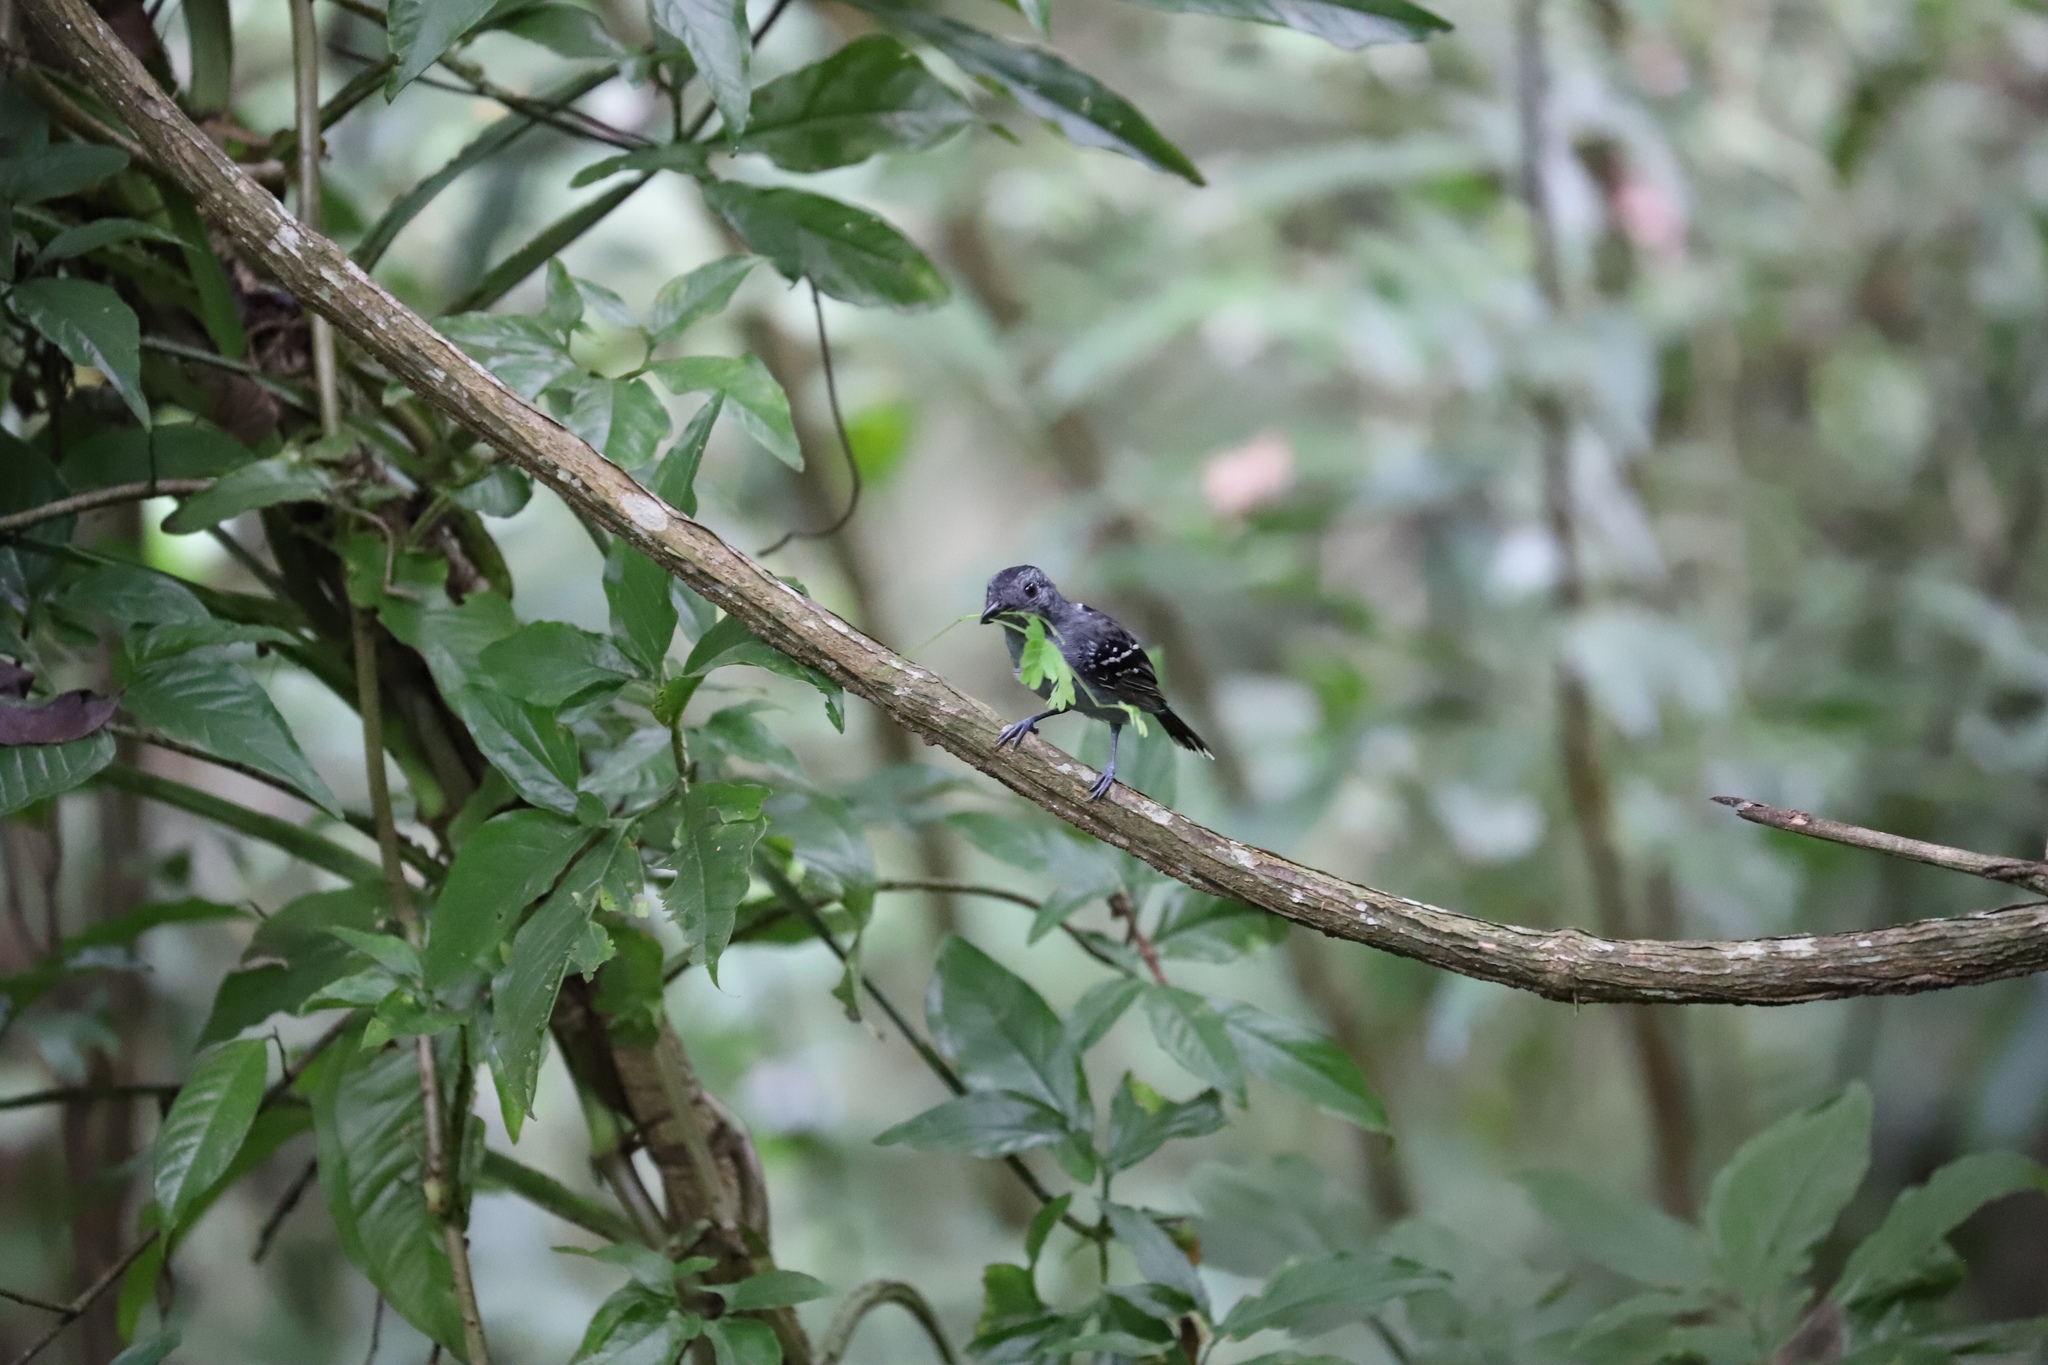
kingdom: Animalia
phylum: Chordata
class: Aves
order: Passeriformes
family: Thamnophilidae
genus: Thamnophilus
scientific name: Thamnophilus atrinucha
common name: Black-crowned antshrike
